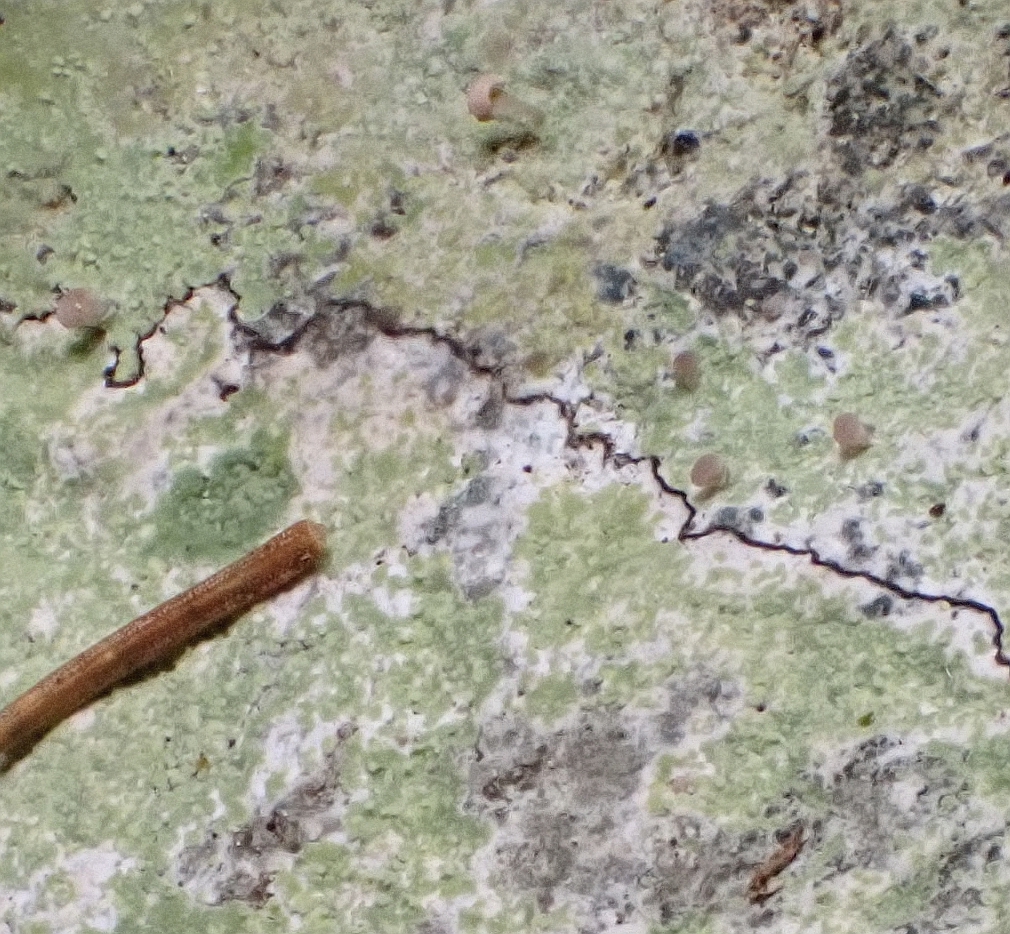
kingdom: Fungi
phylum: Ascomycota
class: Lecanoromycetes
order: Baeomycetales
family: Baeomycetaceae
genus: Baeomyces
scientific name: Baeomyces rufus
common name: Brown beret lichen
